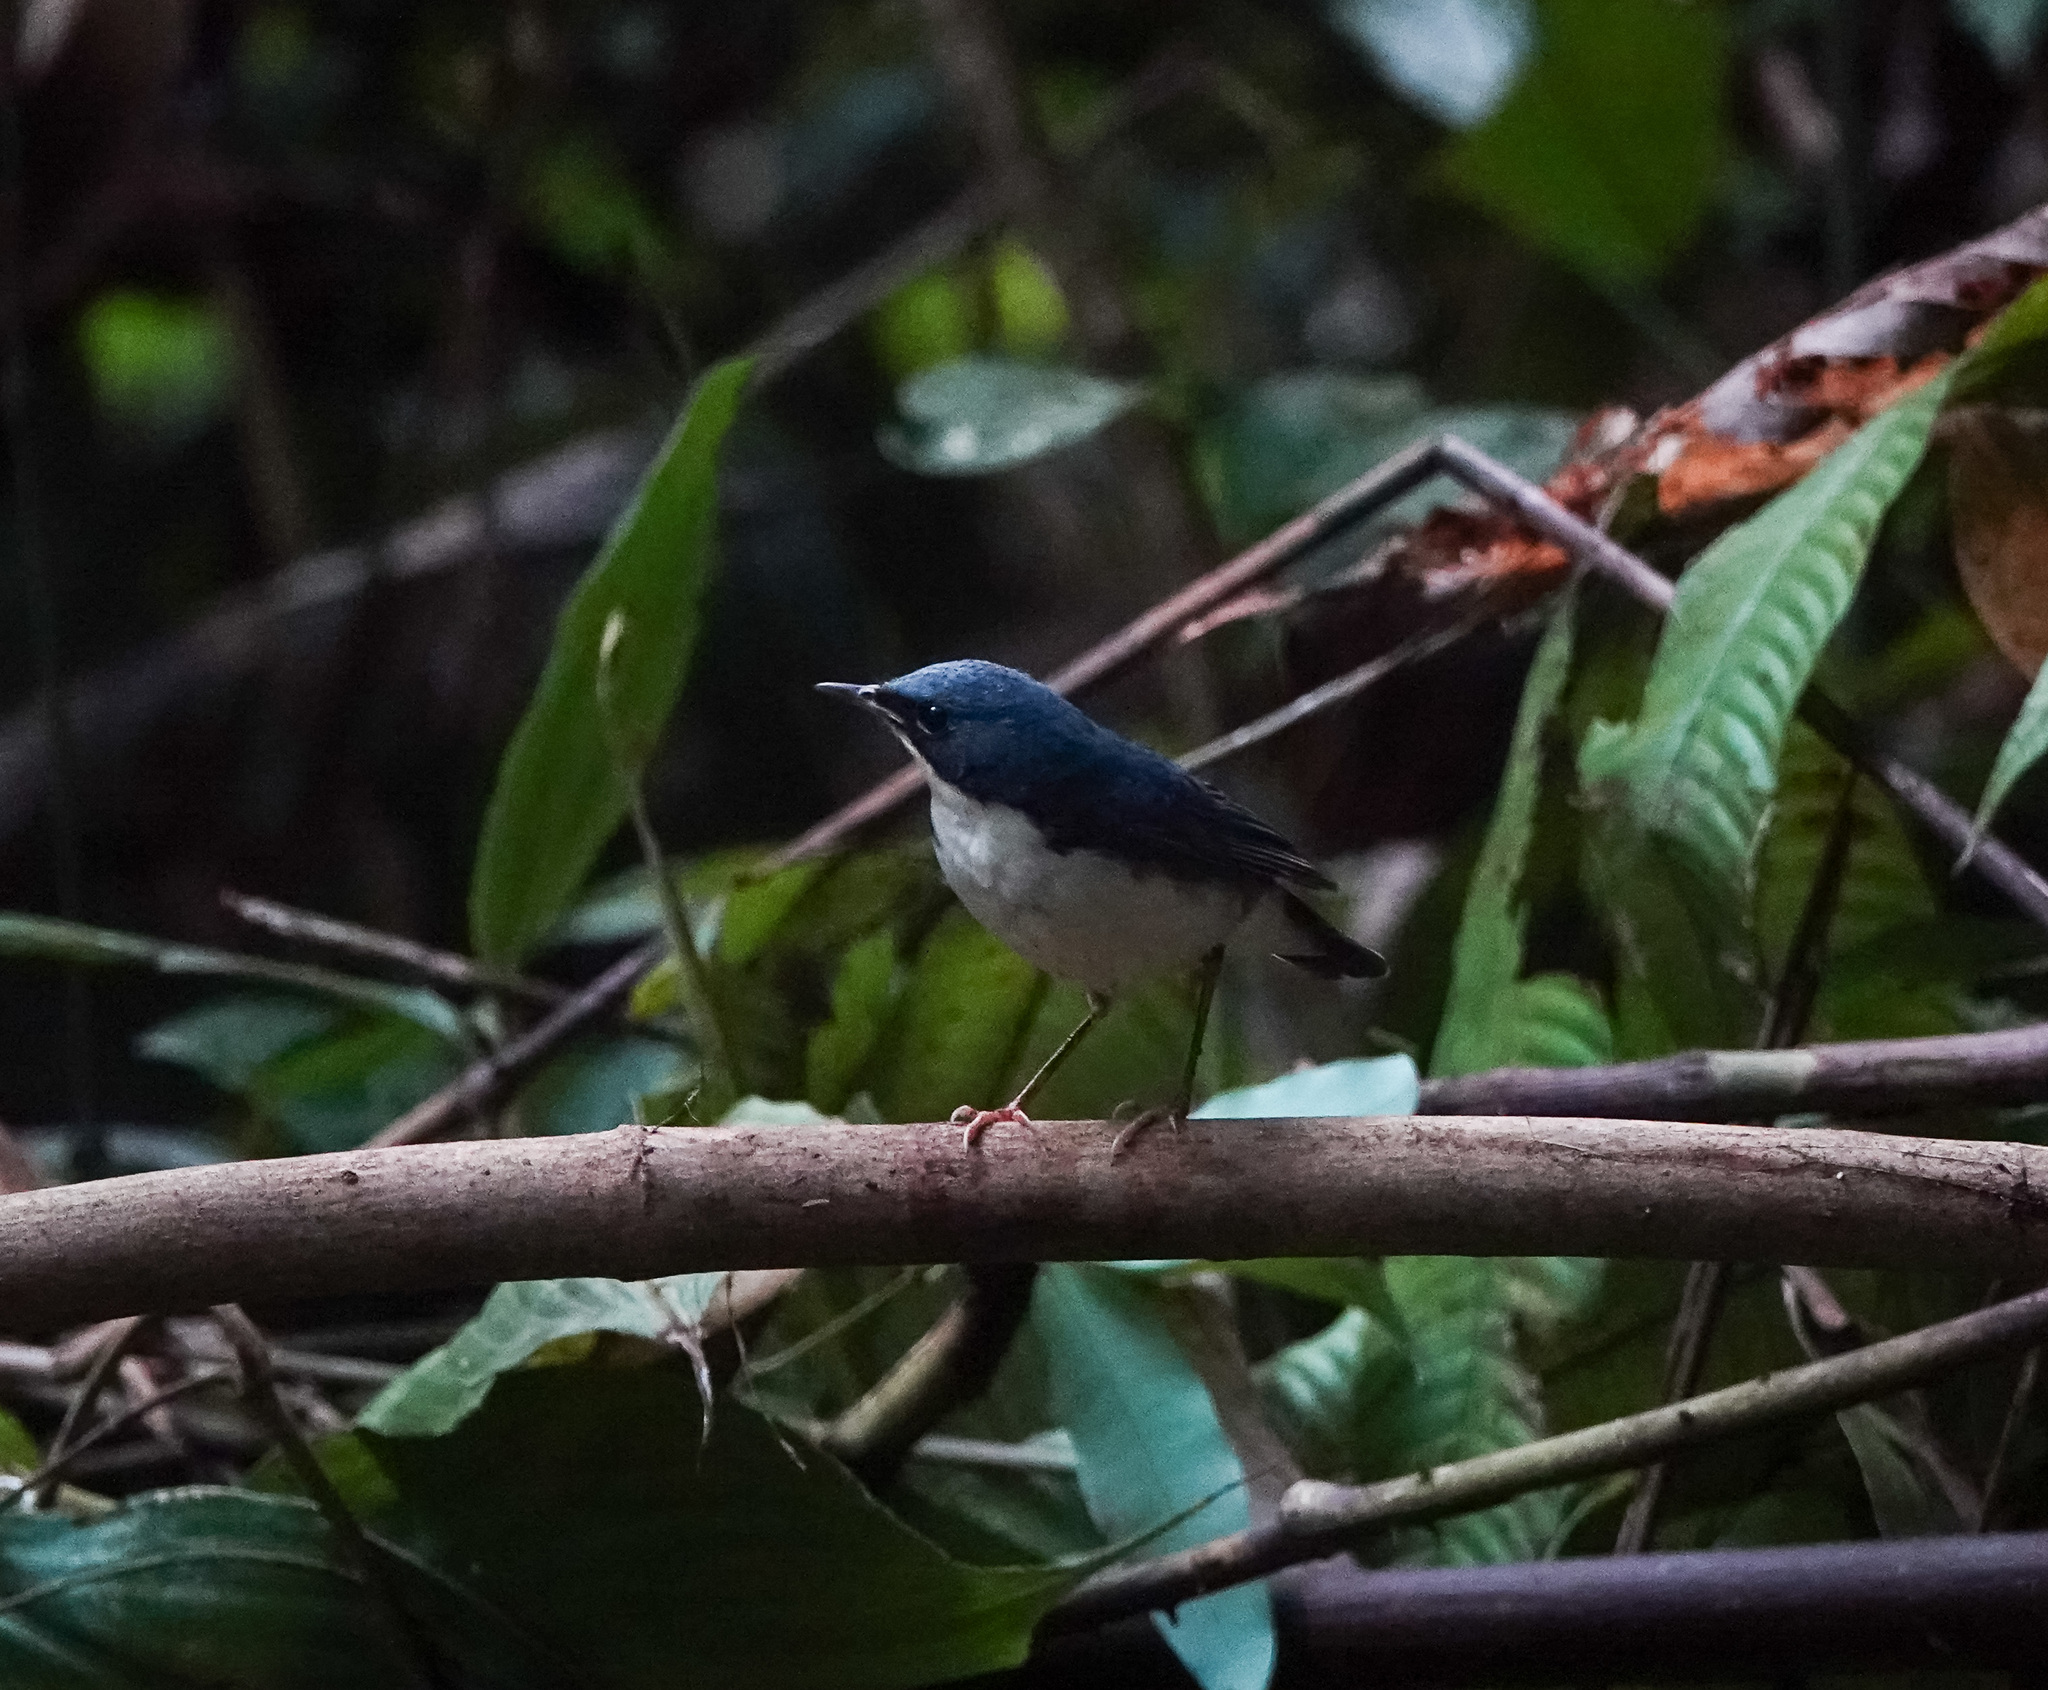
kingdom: Animalia
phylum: Chordata
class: Aves
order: Passeriformes
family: Muscicapidae
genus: Luscinia
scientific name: Luscinia cyane
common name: Siberian blue robin
